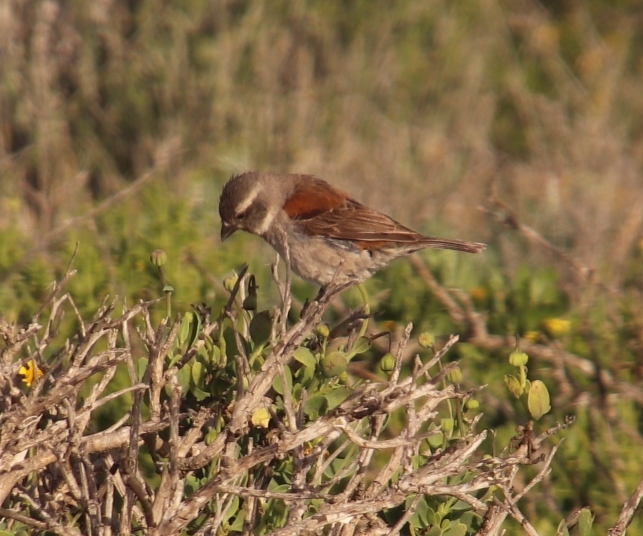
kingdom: Animalia
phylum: Chordata
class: Aves
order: Passeriformes
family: Passeridae
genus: Passer
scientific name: Passer melanurus
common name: Cape sparrow
